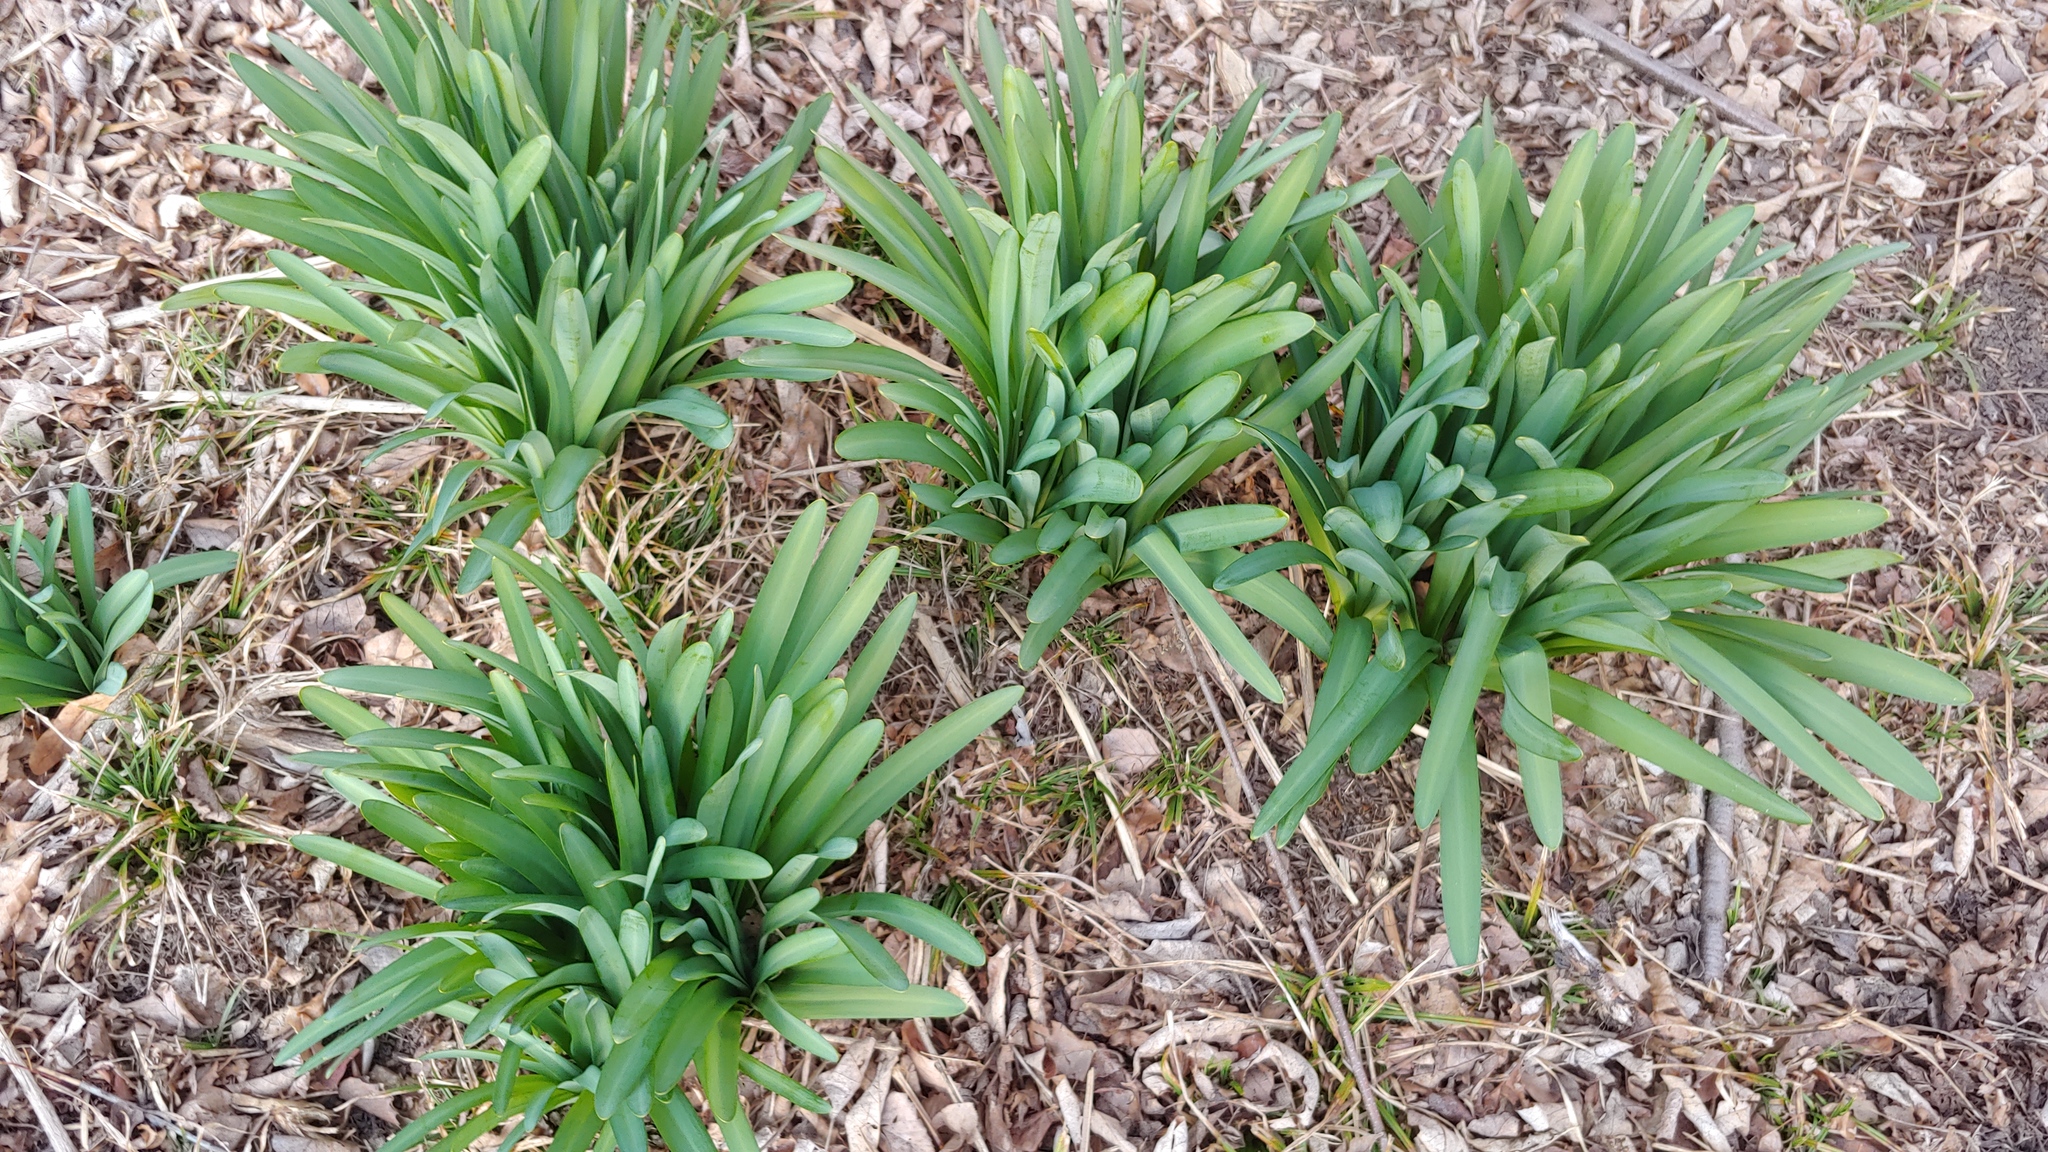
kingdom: Plantae
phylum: Tracheophyta
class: Liliopsida
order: Asparagales
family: Amaryllidaceae
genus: Lycoris
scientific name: Lycoris squamigera
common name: Magic-lily
